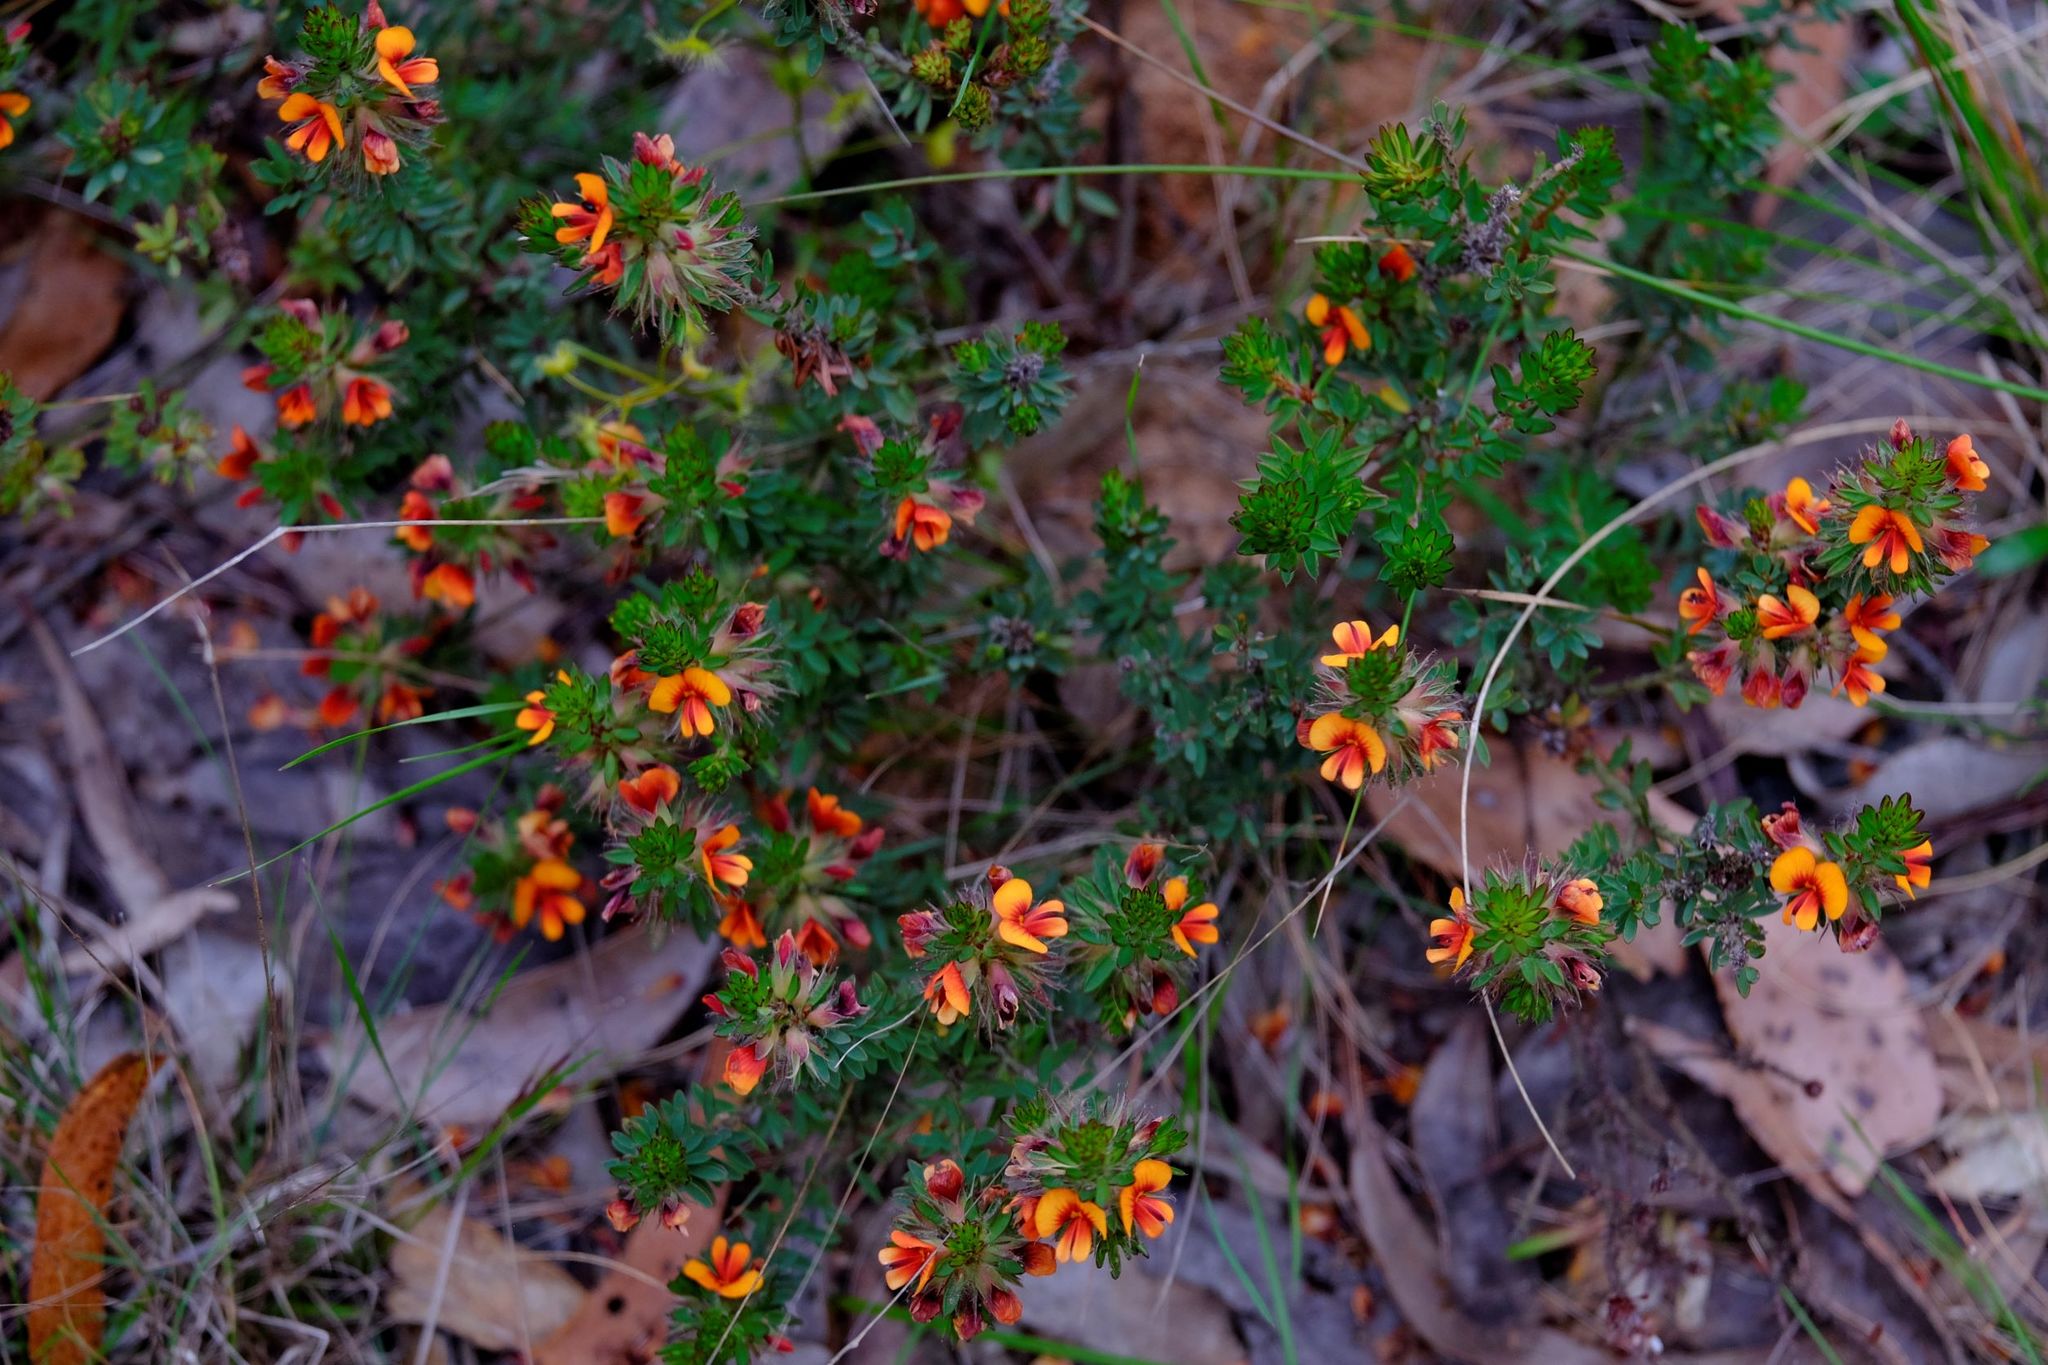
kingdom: Plantae
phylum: Tracheophyta
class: Magnoliopsida
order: Fabales
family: Fabaceae
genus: Pultenaea
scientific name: Pultenaea humilis
